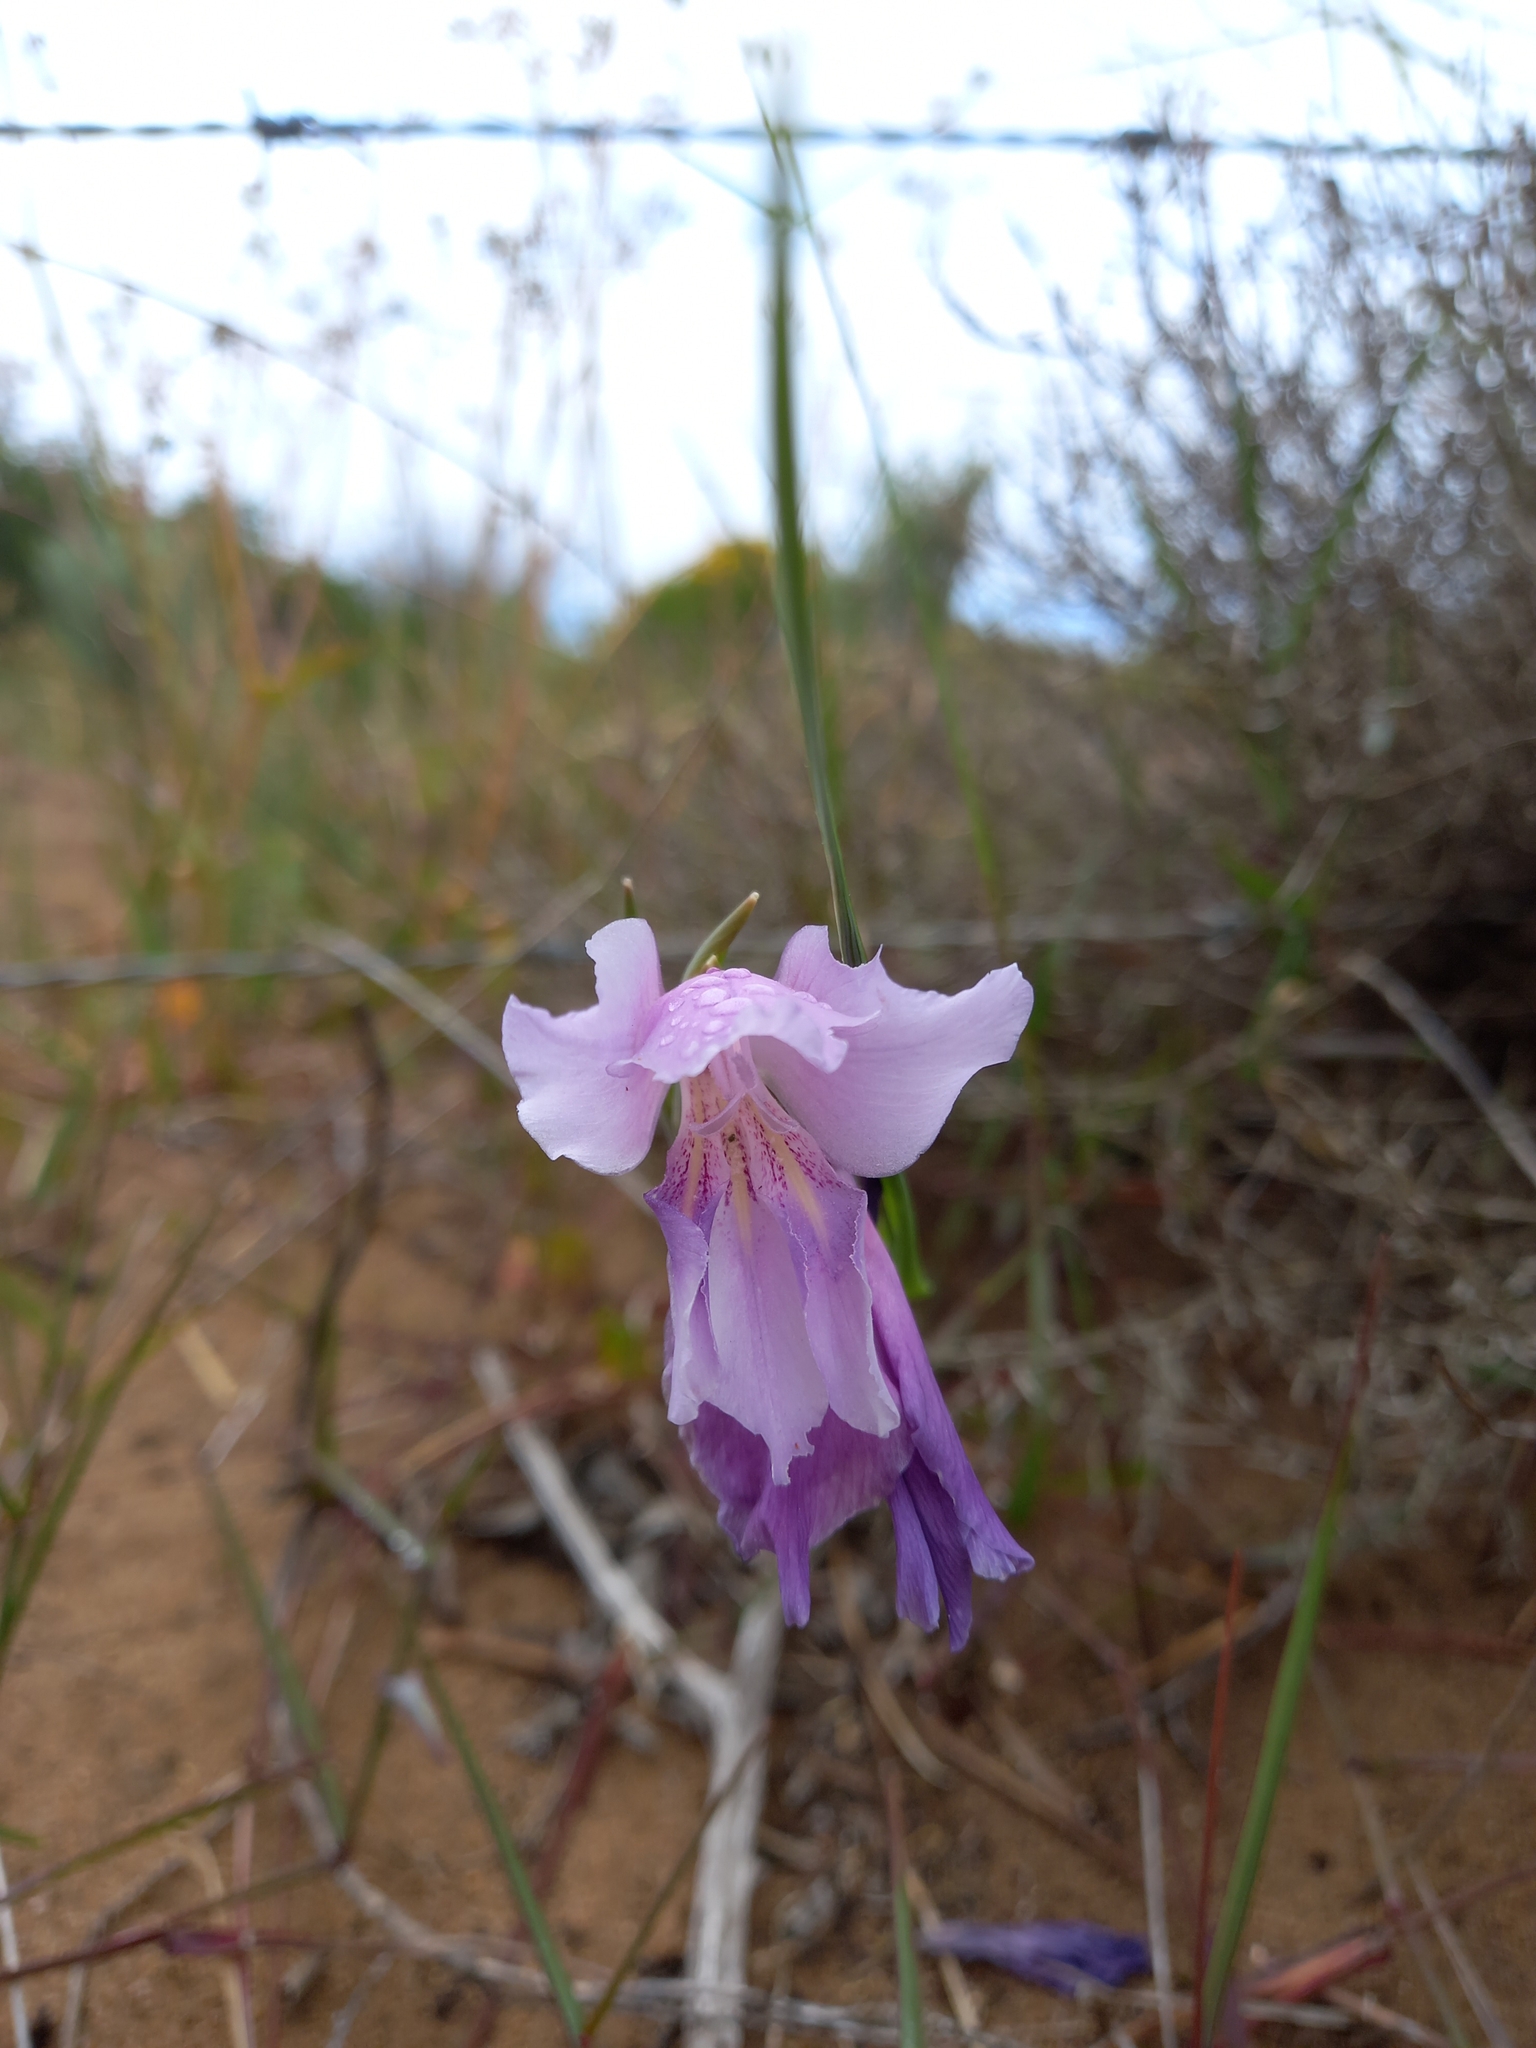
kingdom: Plantae
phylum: Tracheophyta
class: Liliopsida
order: Asparagales
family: Iridaceae
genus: Gladiolus
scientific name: Gladiolus carinatus
